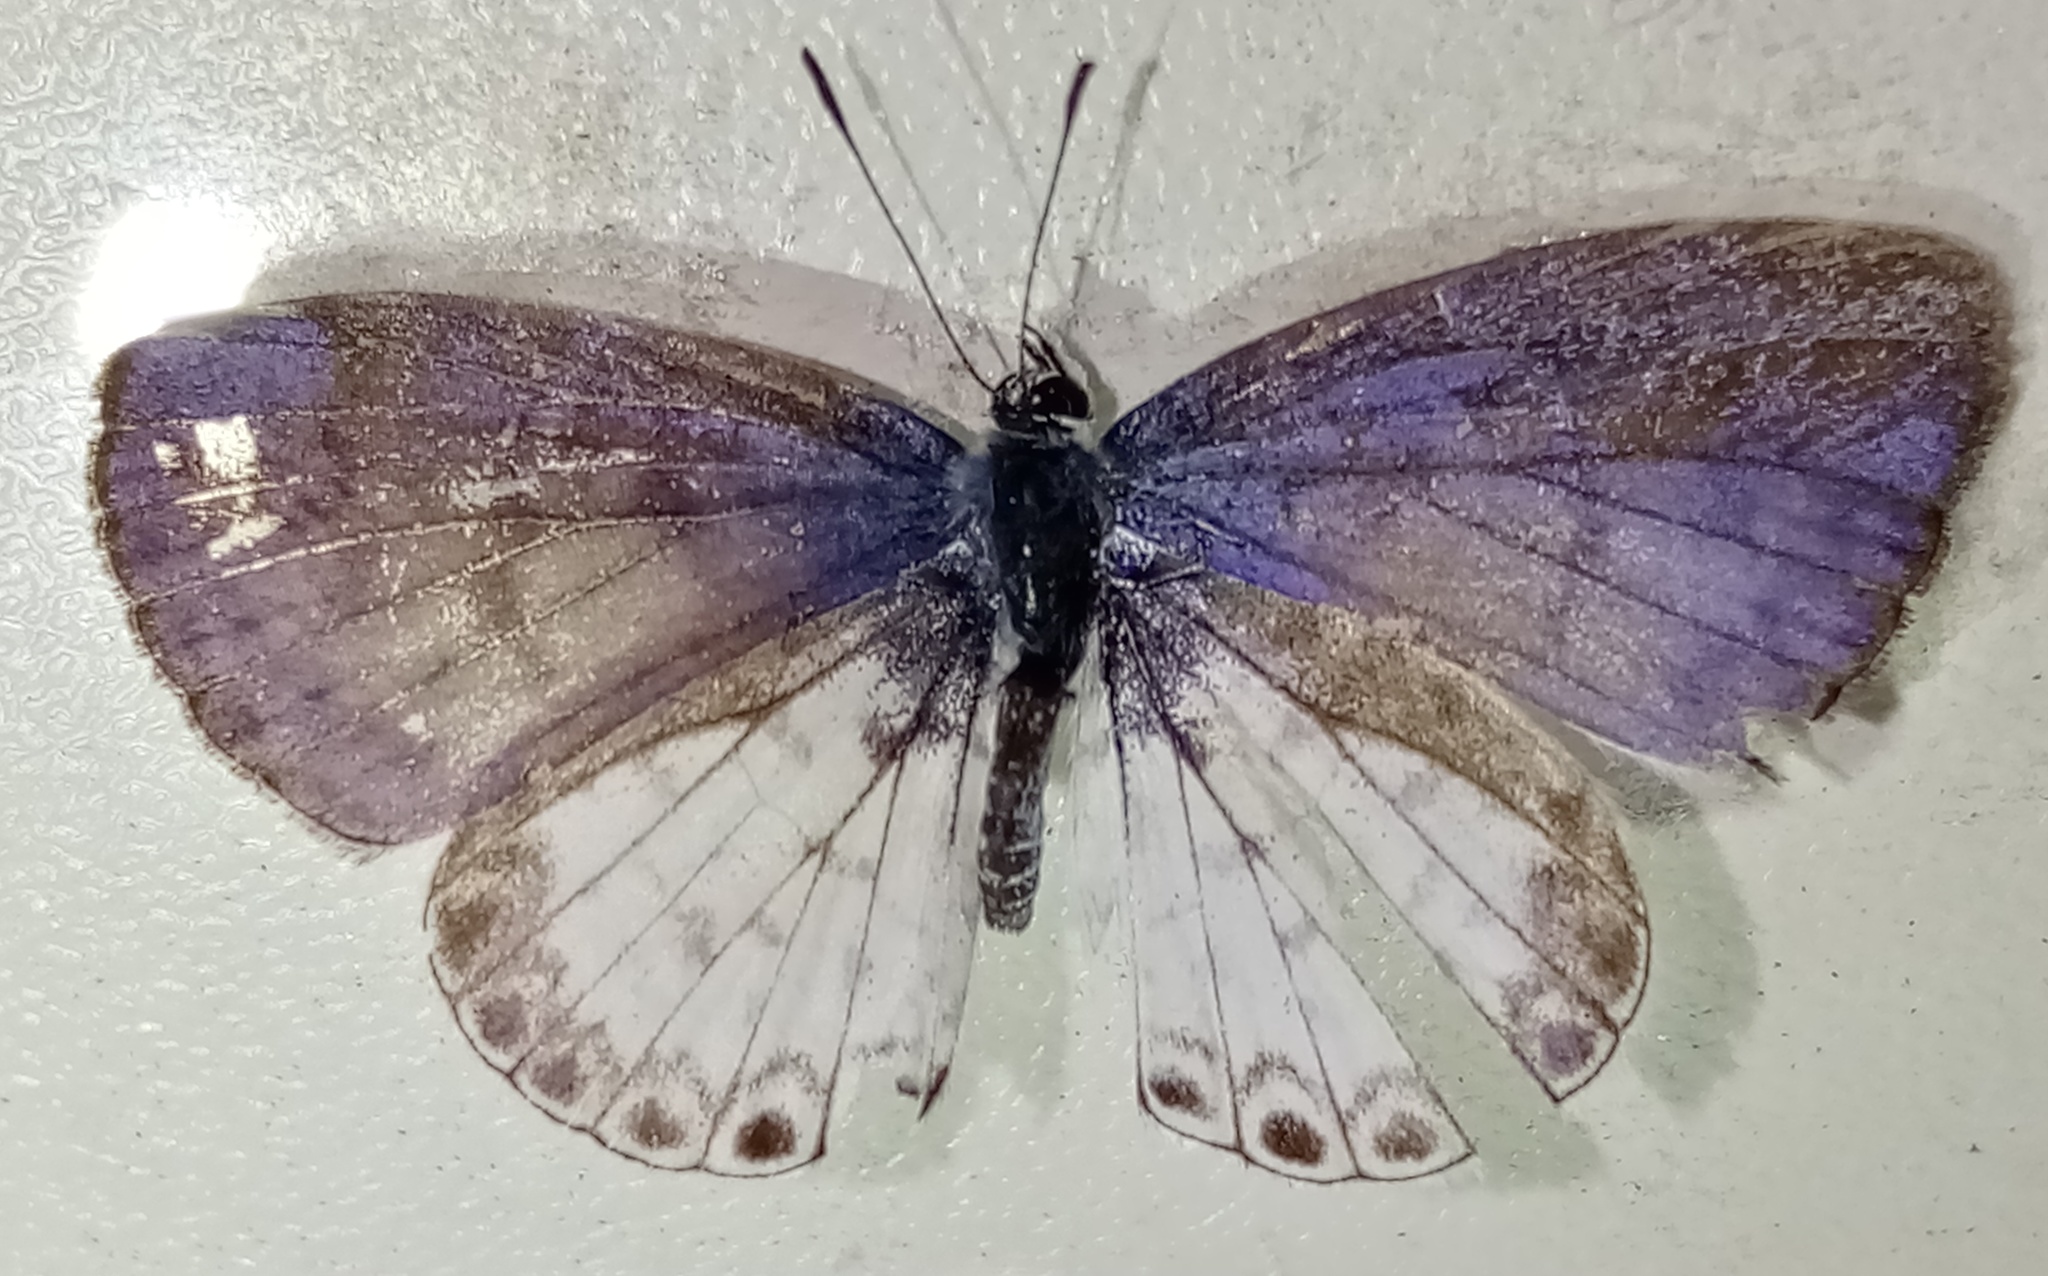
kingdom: Animalia
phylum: Arthropoda
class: Insecta
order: Lepidoptera
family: Lycaenidae
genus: Leptotes
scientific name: Leptotes cassius
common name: Cassius blue
